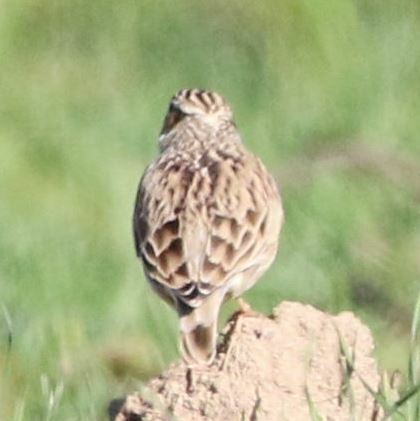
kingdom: Animalia
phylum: Chordata
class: Aves
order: Passeriformes
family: Alaudidae
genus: Lullula
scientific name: Lullula arborea
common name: Woodlark
